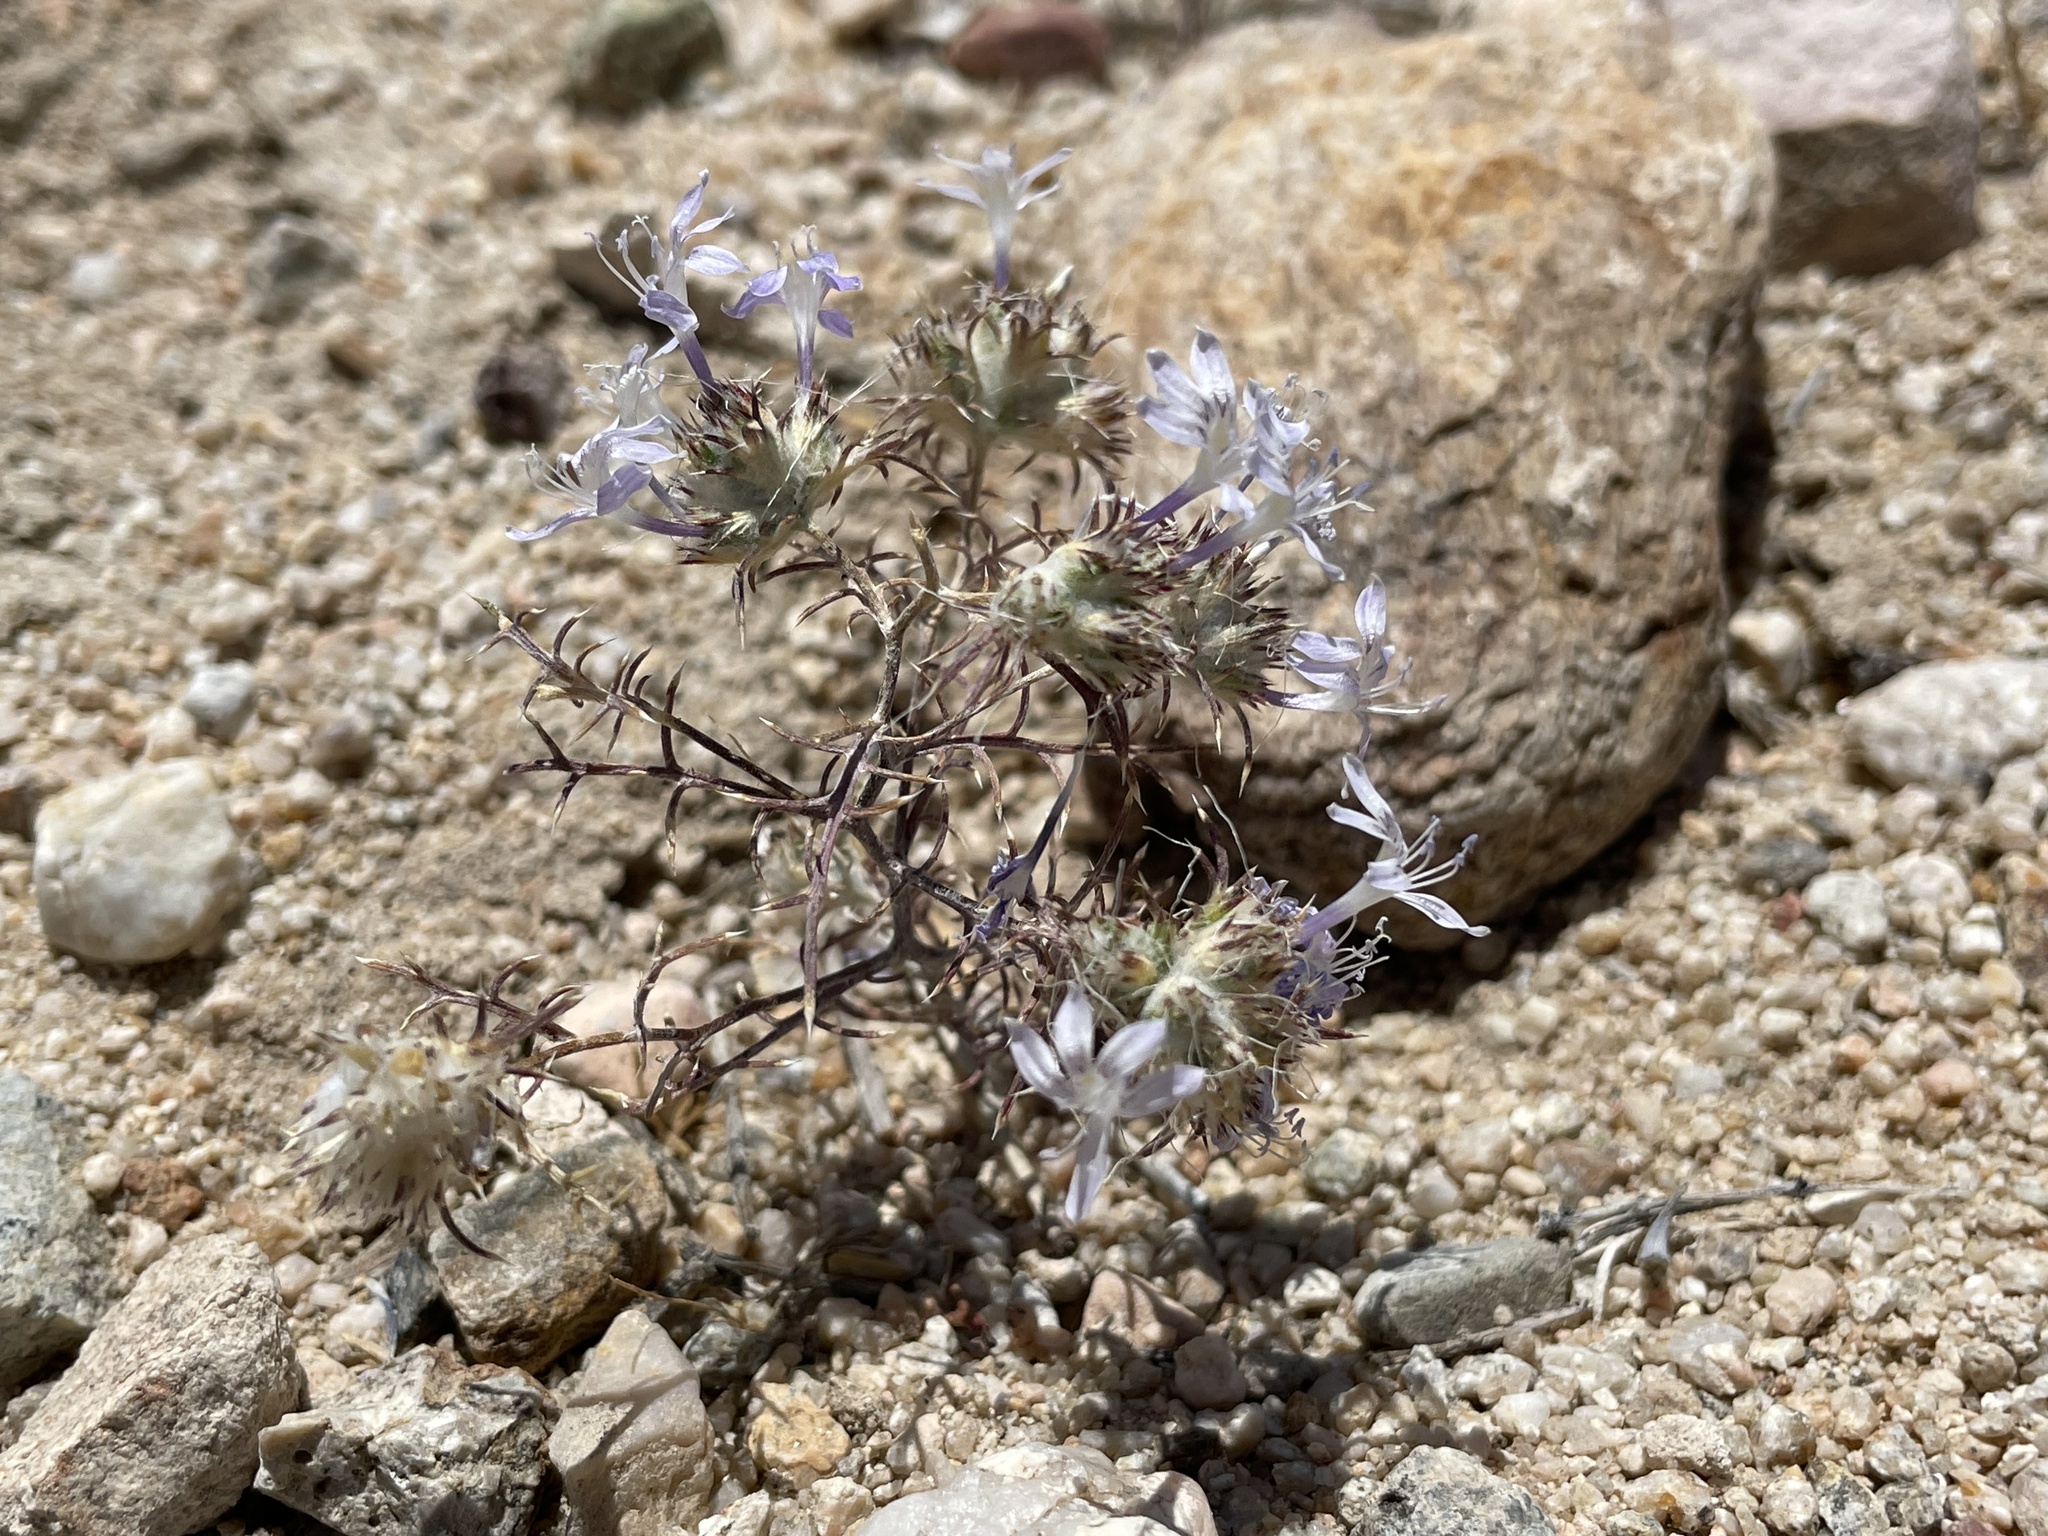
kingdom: Plantae
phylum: Tracheophyta
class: Magnoliopsida
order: Ericales
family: Polemoniaceae
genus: Eriastrum
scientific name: Eriastrum eremicum
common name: Desert eriastrum
